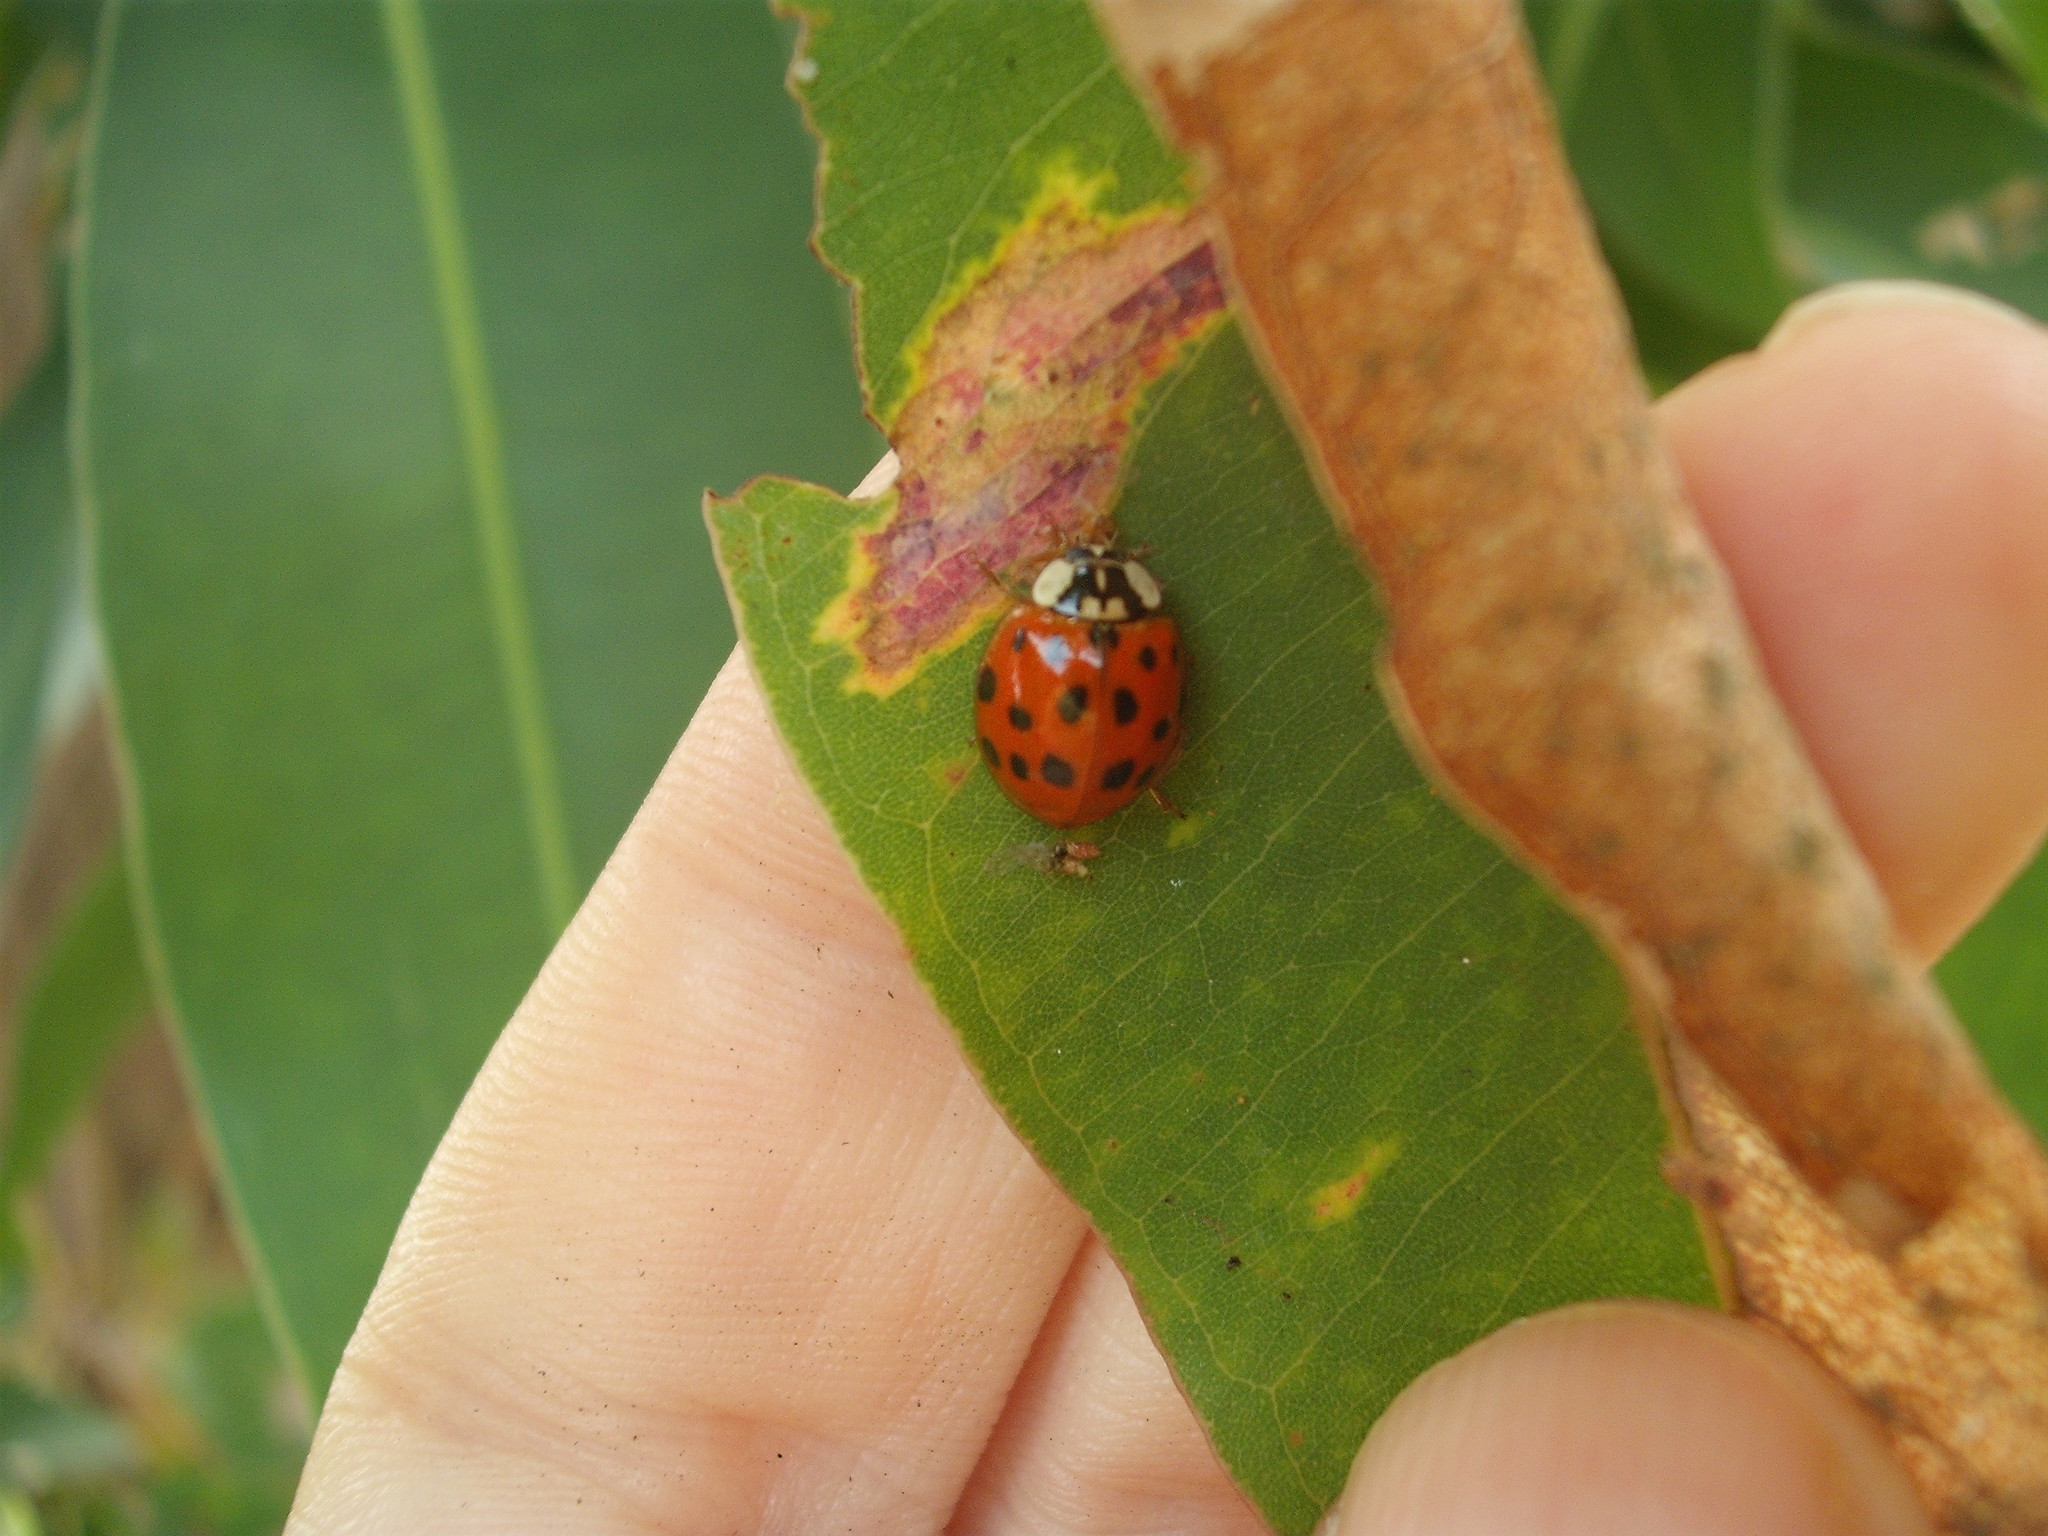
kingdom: Animalia
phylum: Arthropoda
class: Insecta
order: Coleoptera
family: Coccinellidae
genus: Harmonia
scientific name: Harmonia axyridis
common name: Harlequin ladybird
